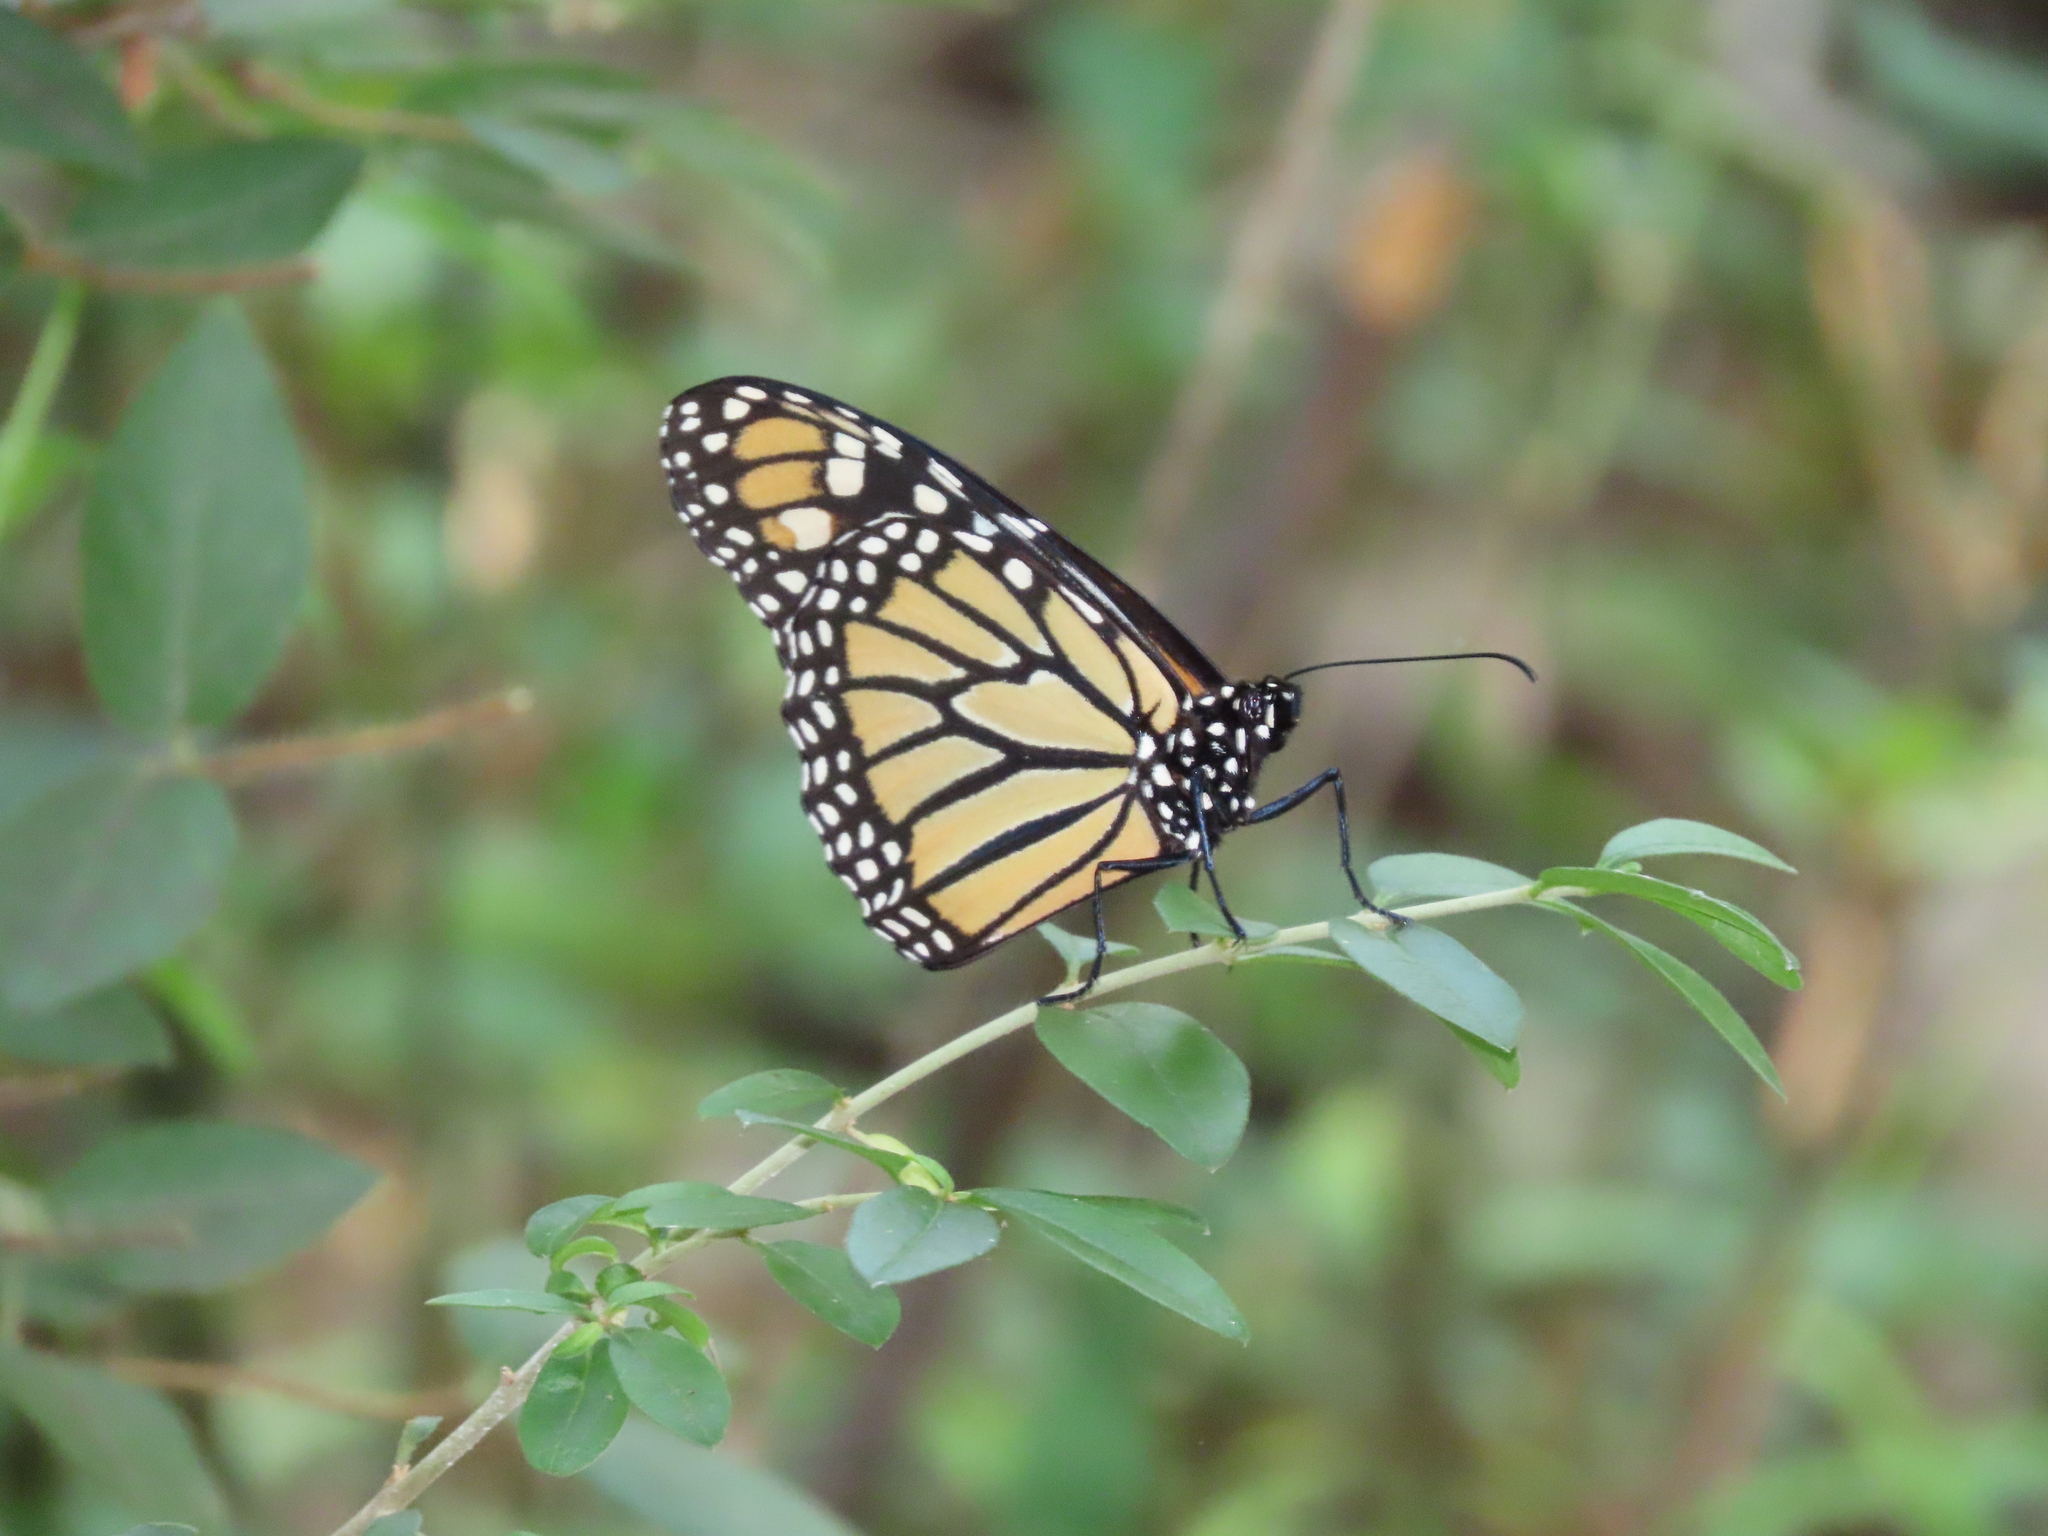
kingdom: Animalia
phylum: Arthropoda
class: Insecta
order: Lepidoptera
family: Nymphalidae
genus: Danaus
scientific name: Danaus plexippus
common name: Monarch
